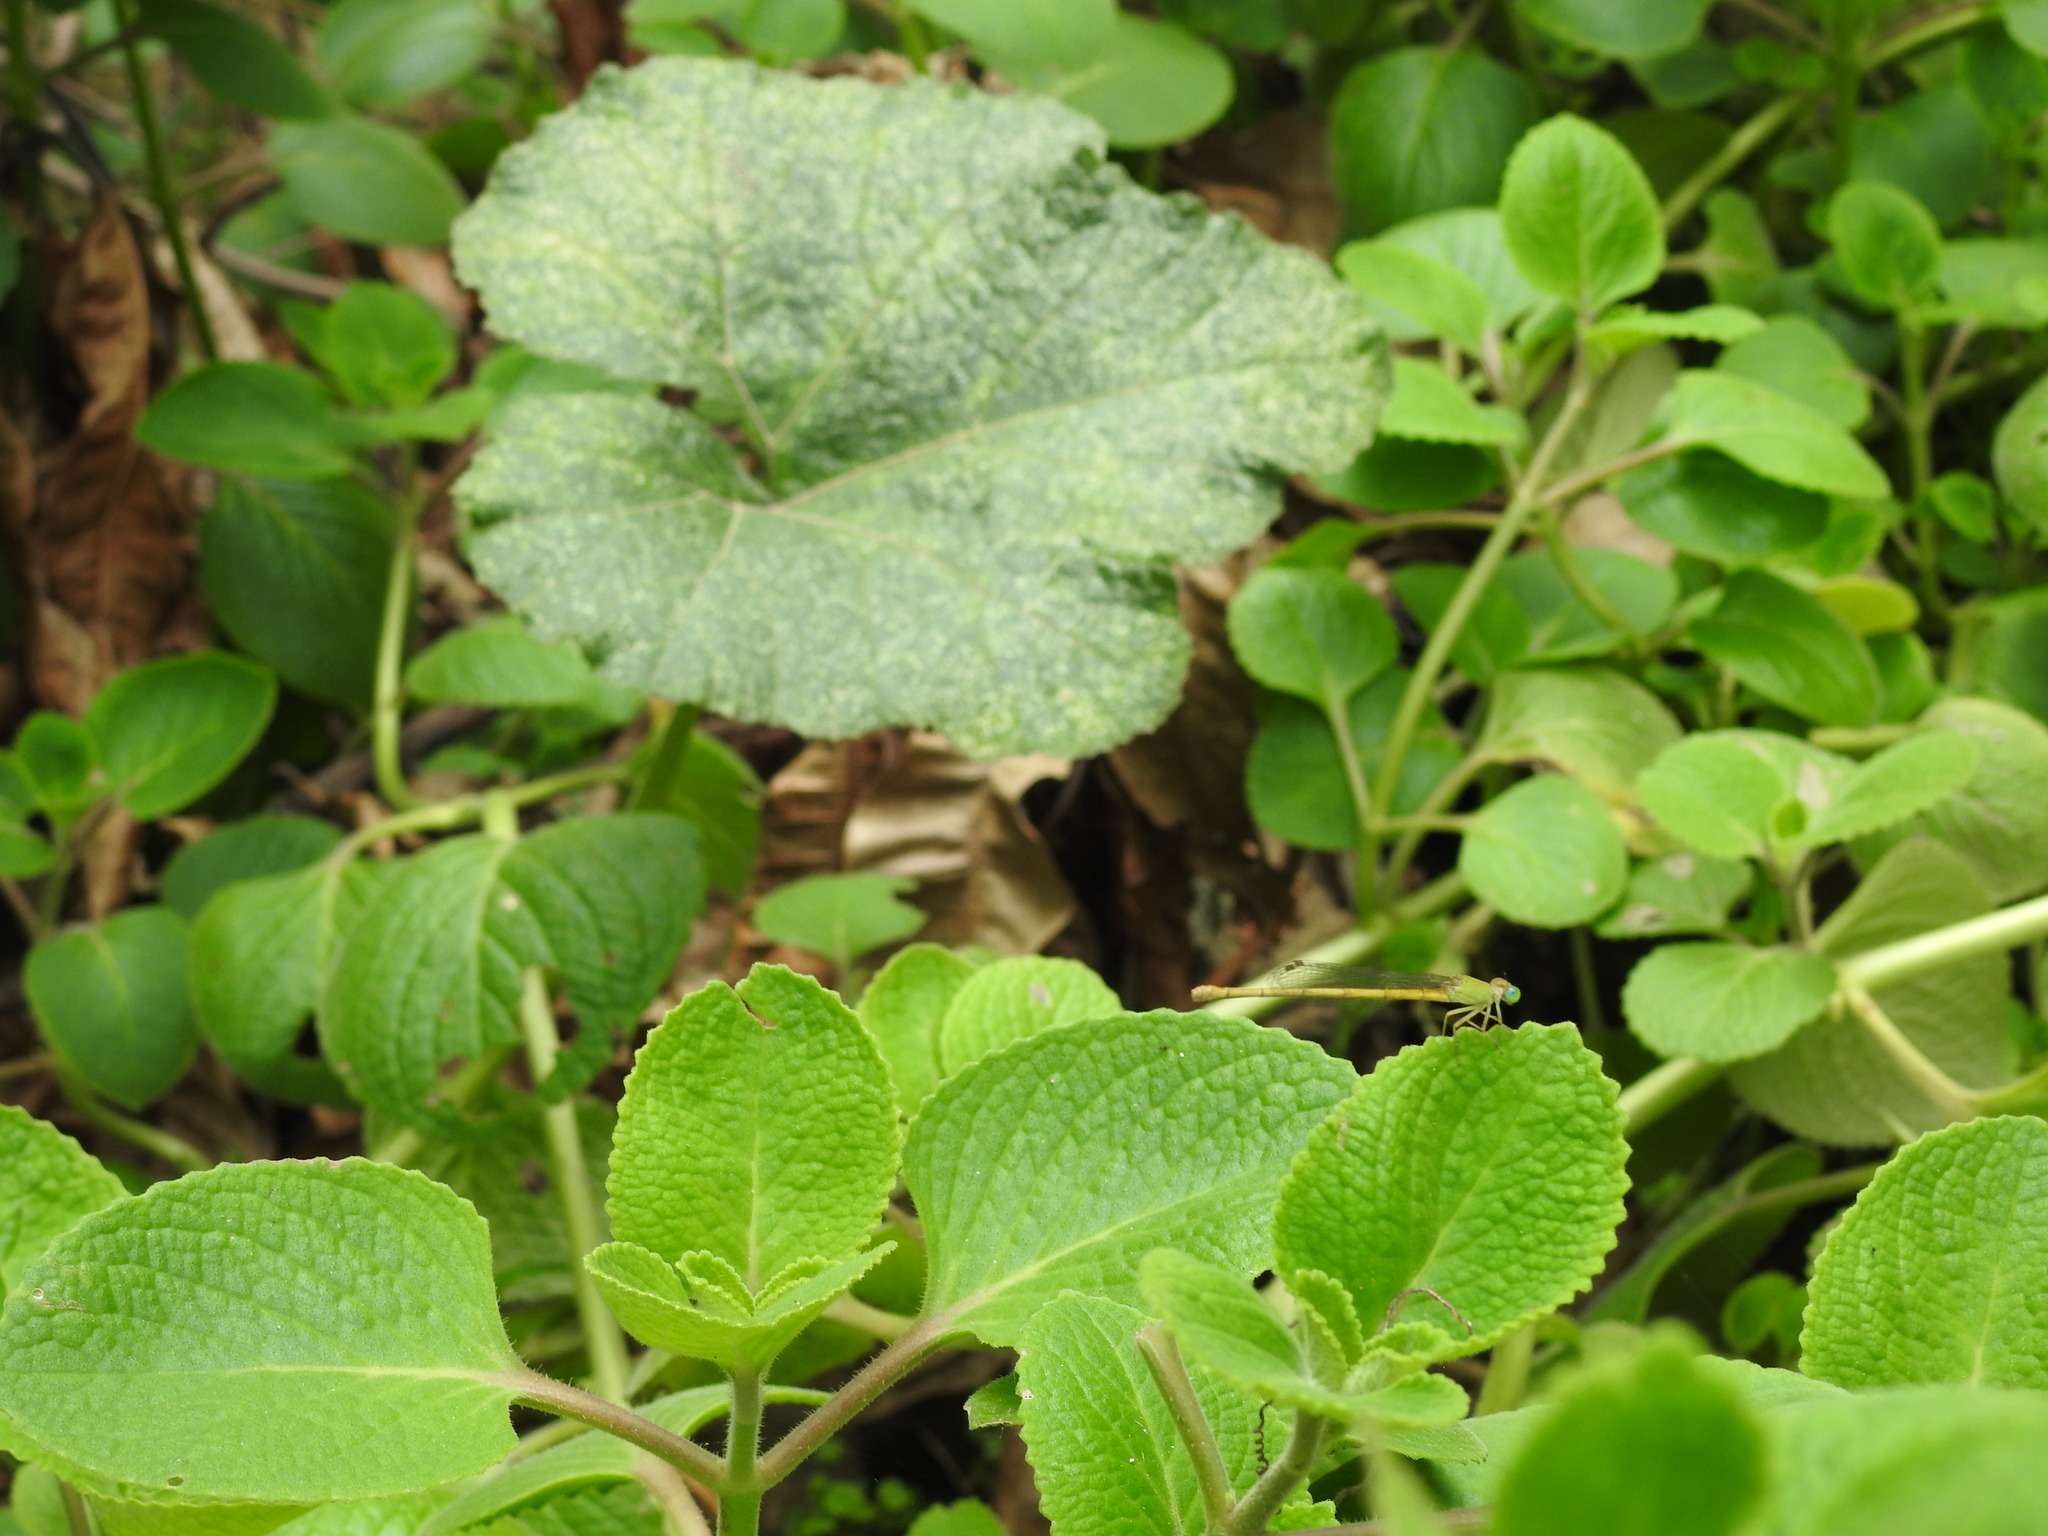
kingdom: Animalia
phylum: Arthropoda
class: Insecta
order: Odonata
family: Coenagrionidae
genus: Ceriagrion
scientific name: Ceriagrion coromandelianum
